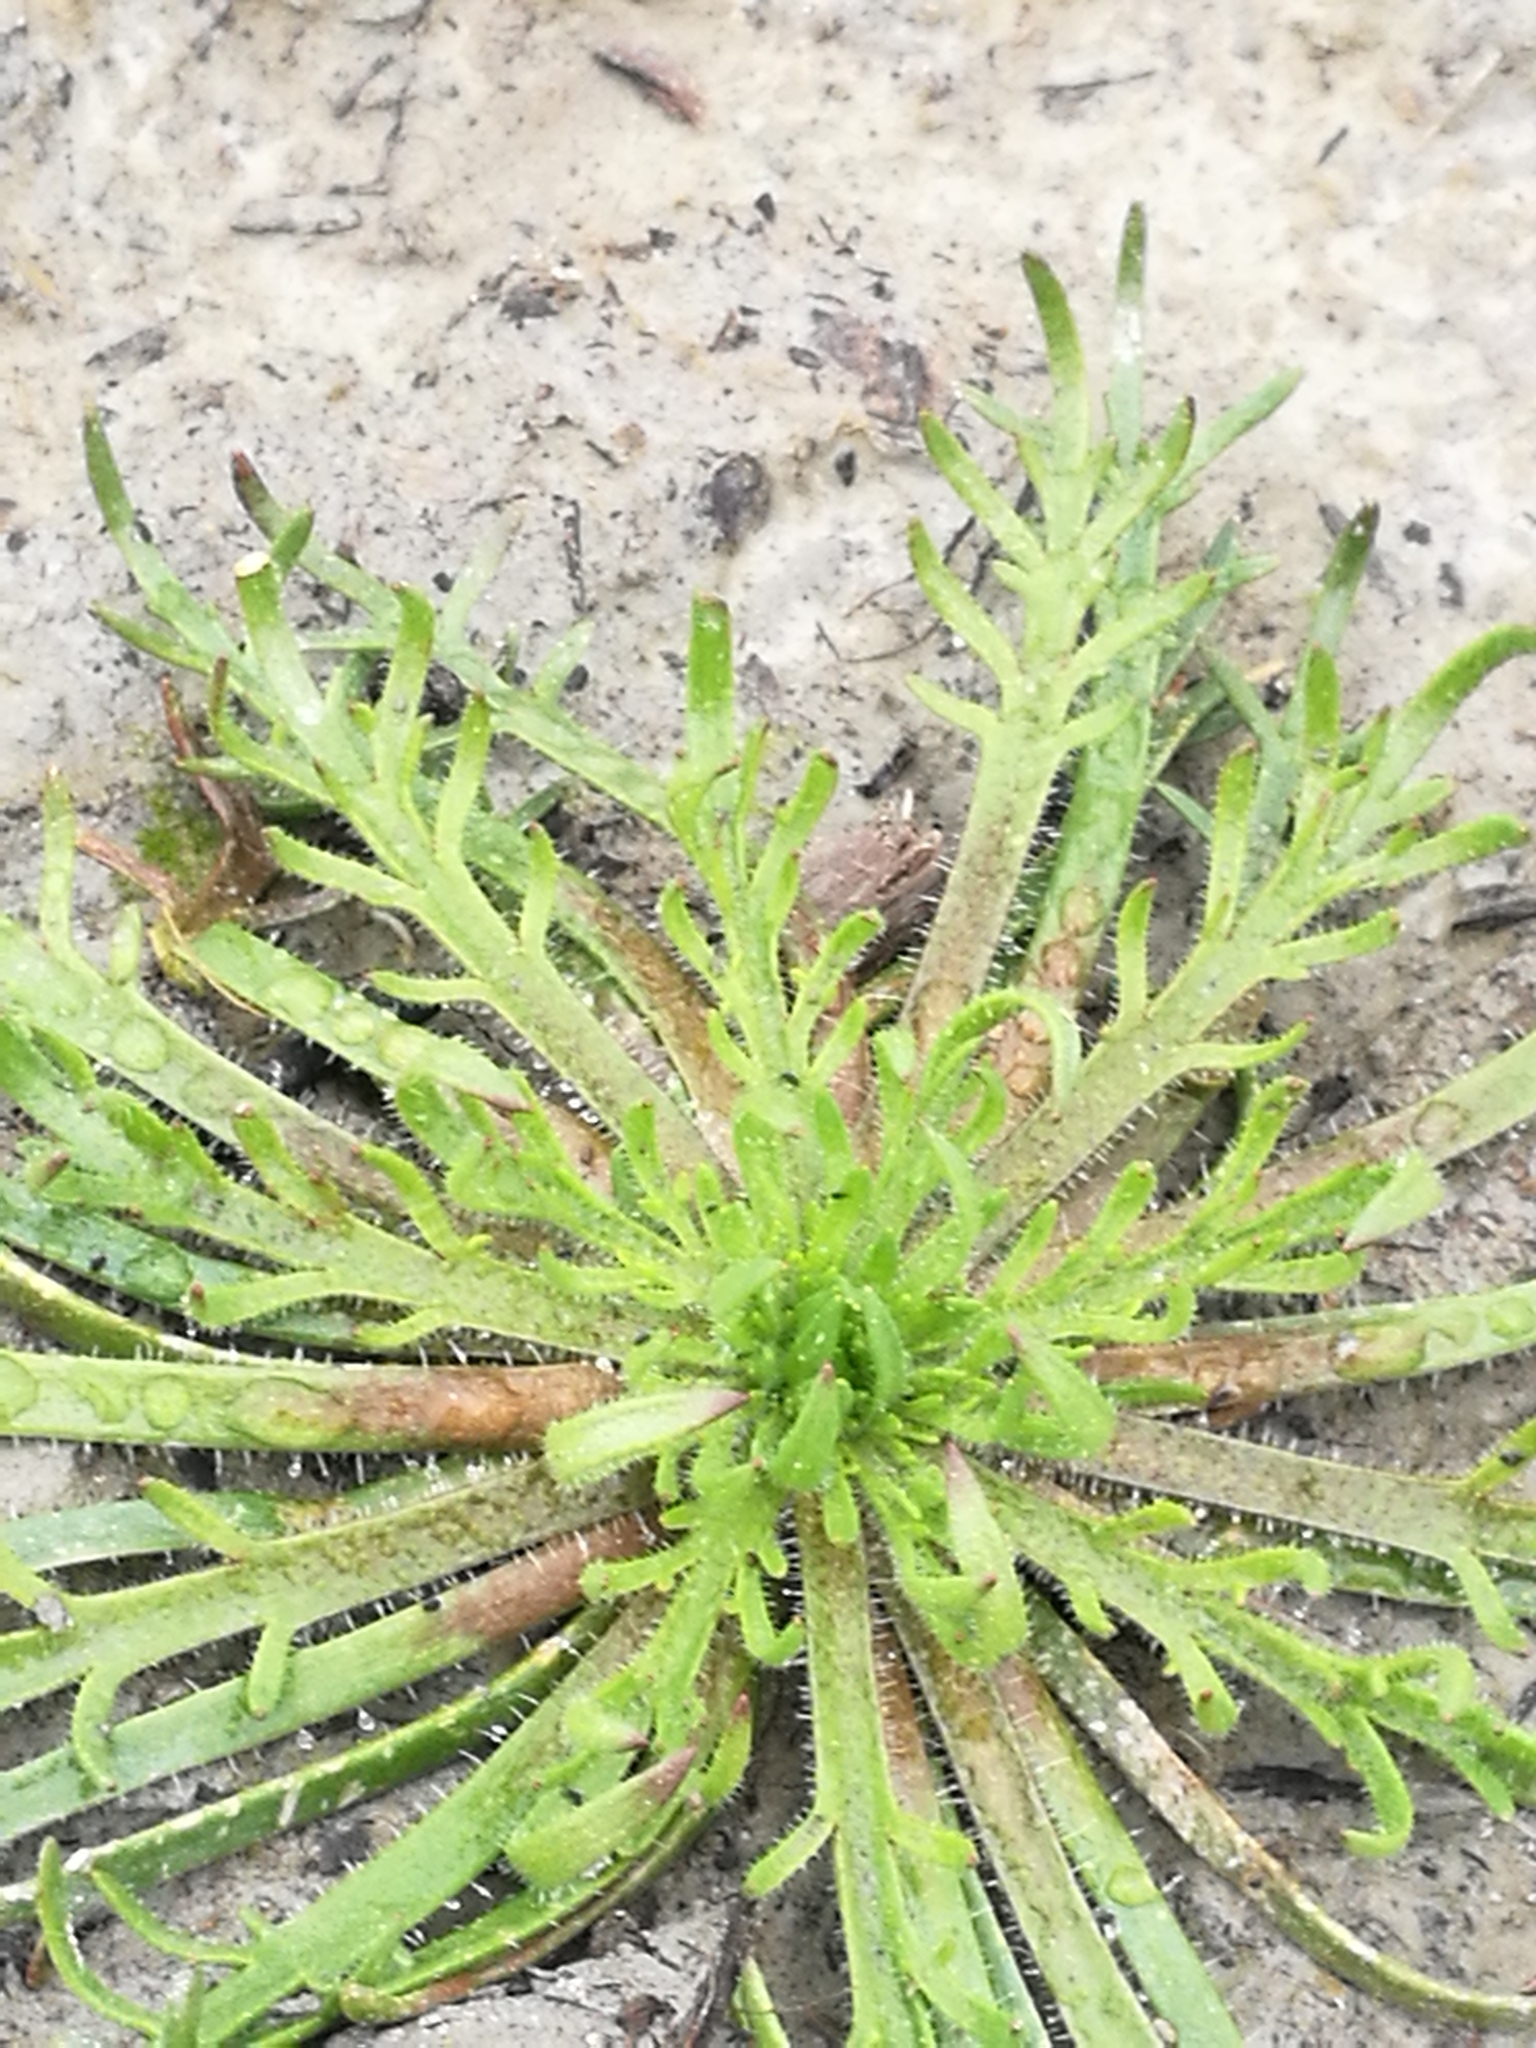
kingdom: Plantae
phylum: Tracheophyta
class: Magnoliopsida
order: Lamiales
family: Plantaginaceae
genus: Plantago
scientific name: Plantago coronopus
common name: Buck's-horn plantain
